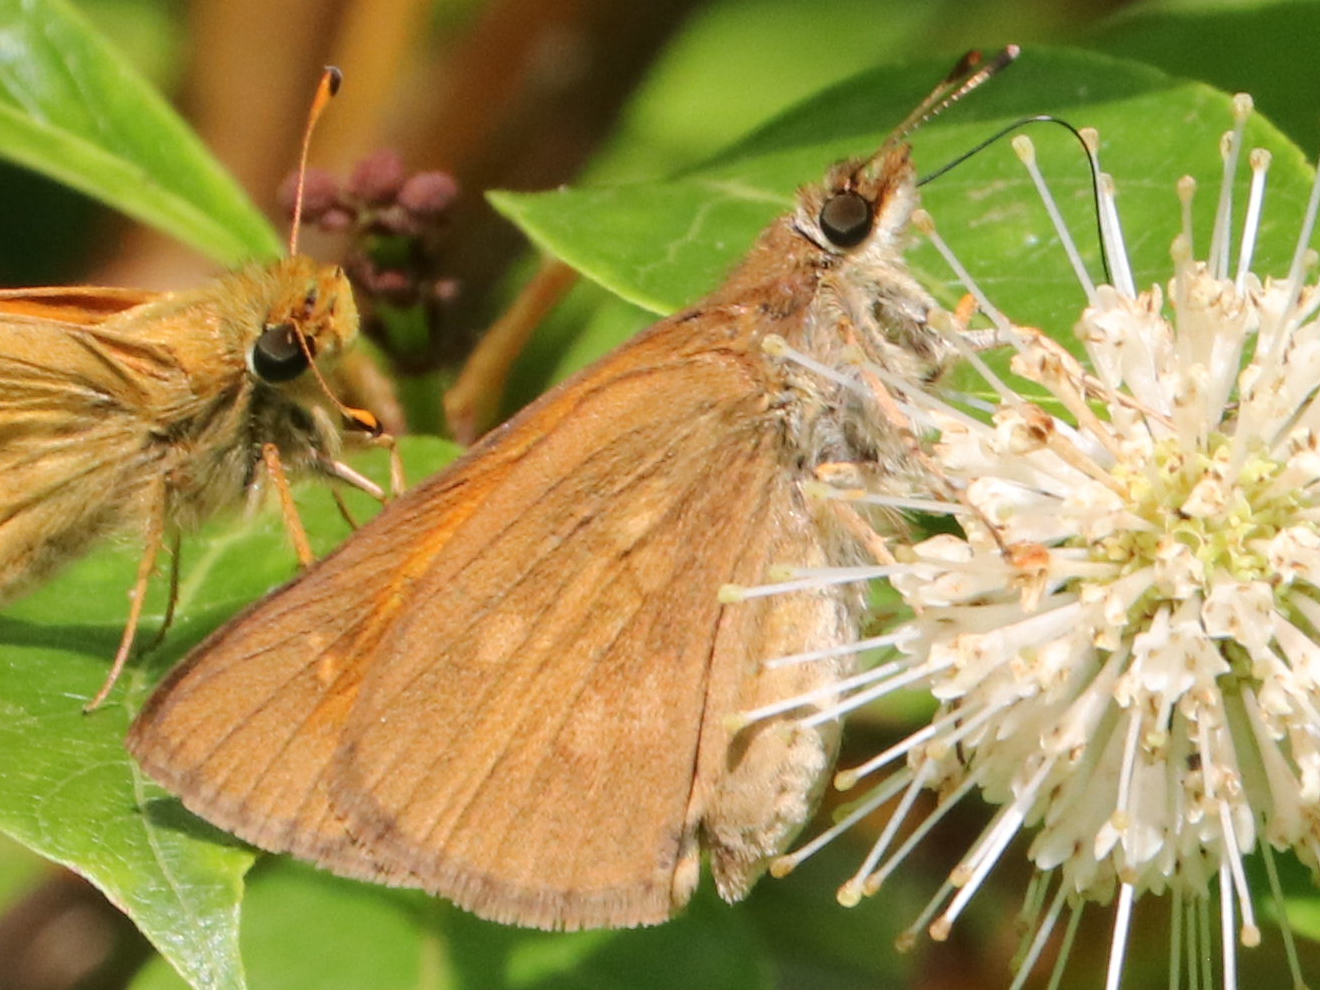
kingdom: Animalia
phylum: Arthropoda
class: Insecta
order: Lepidoptera
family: Hesperiidae
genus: Poanes
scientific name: Poanes viator
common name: Broad-winged skipper
